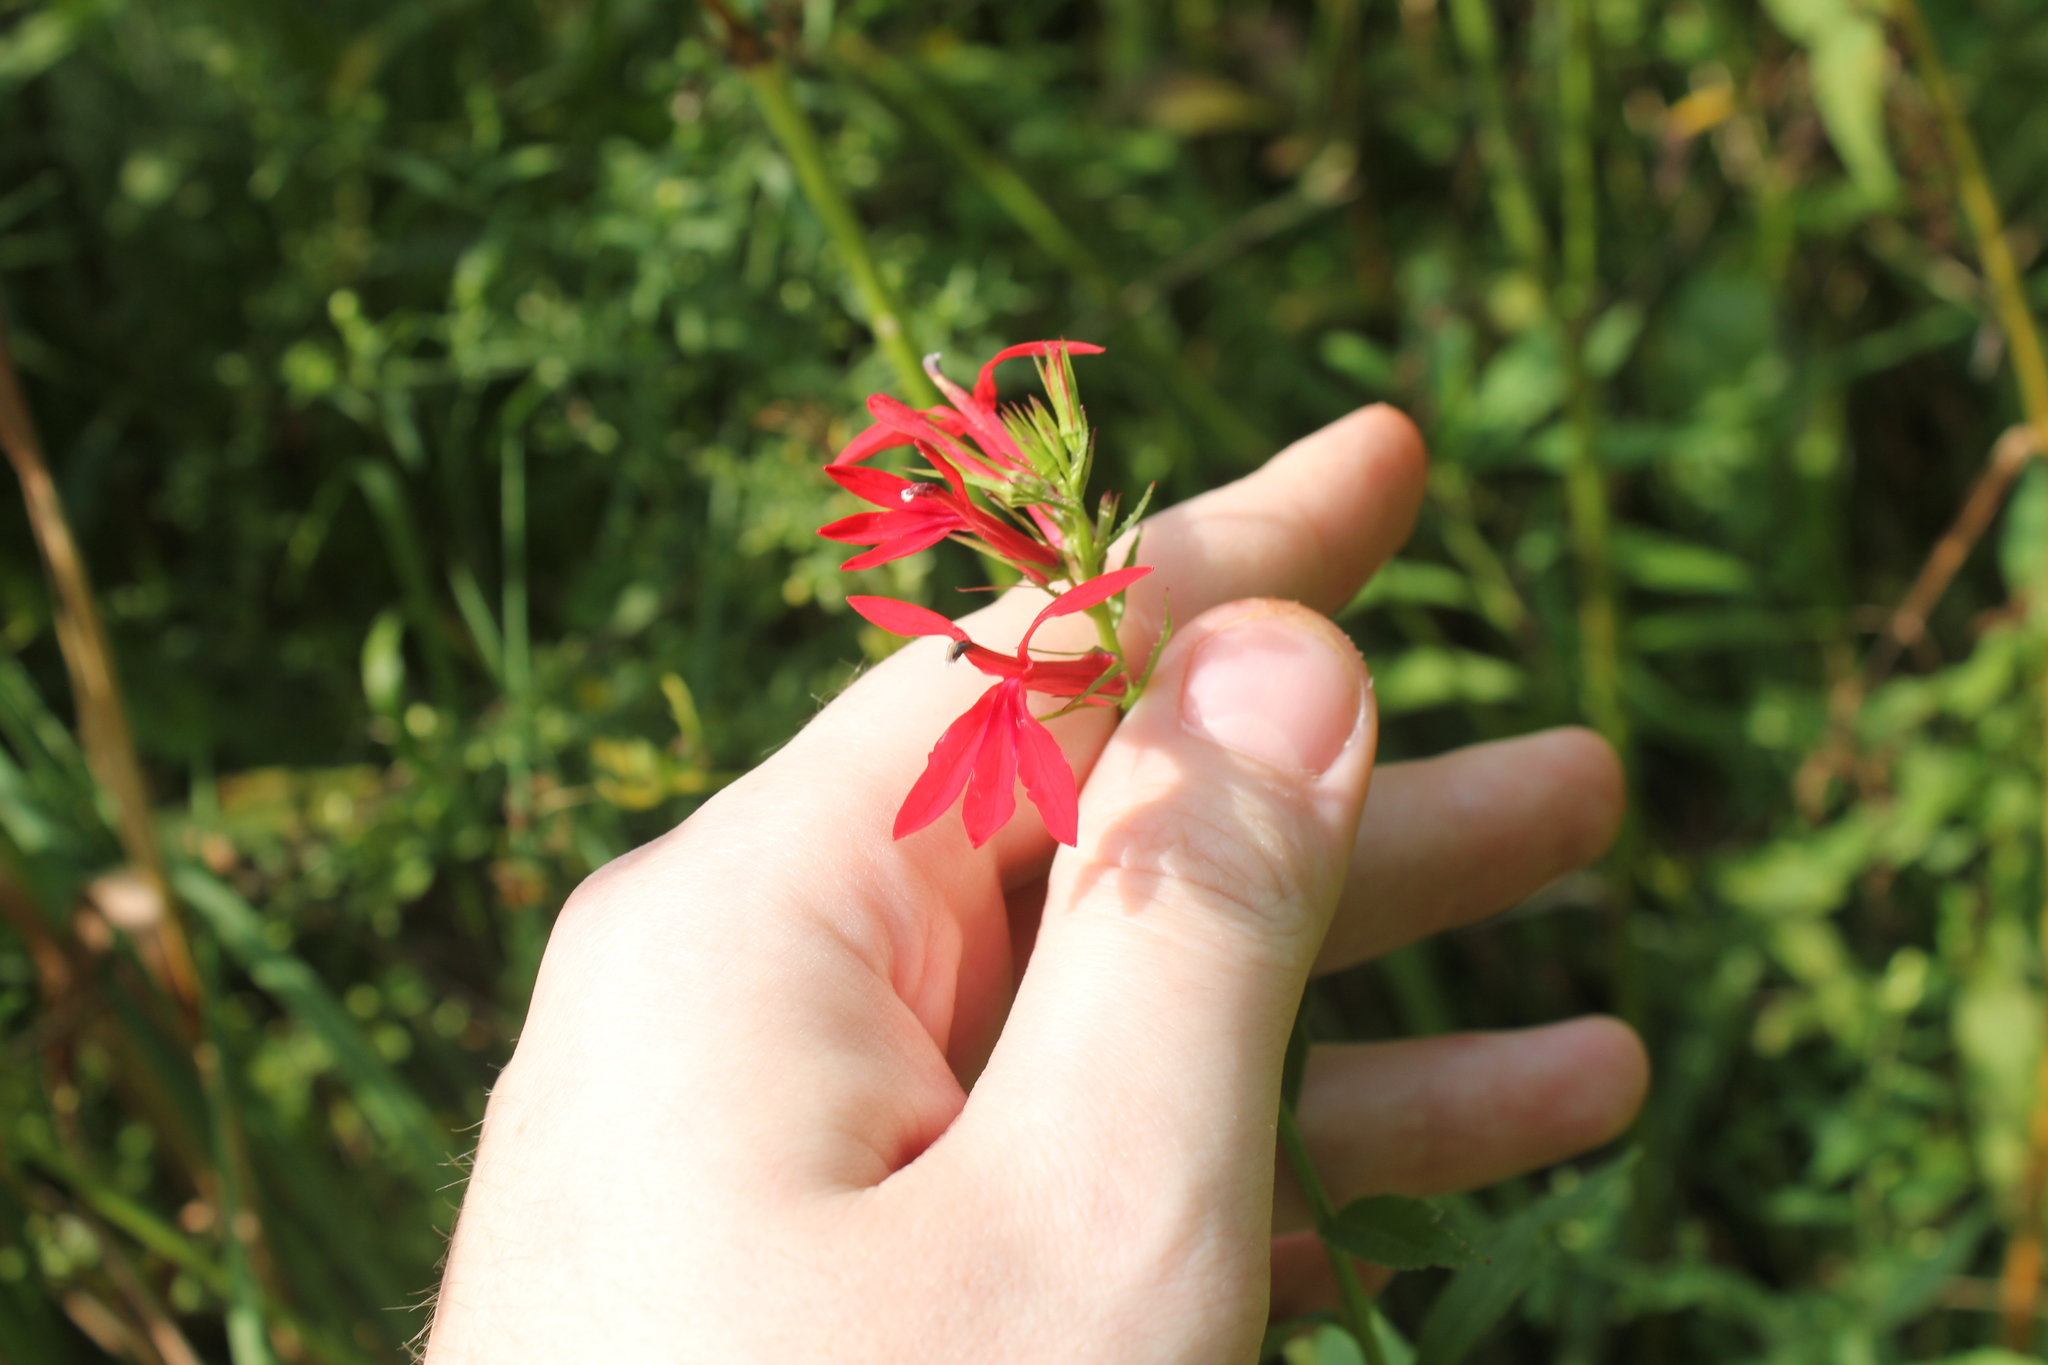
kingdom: Plantae
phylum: Tracheophyta
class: Magnoliopsida
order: Asterales
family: Campanulaceae
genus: Lobelia
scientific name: Lobelia cardinalis
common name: Cardinal flower
